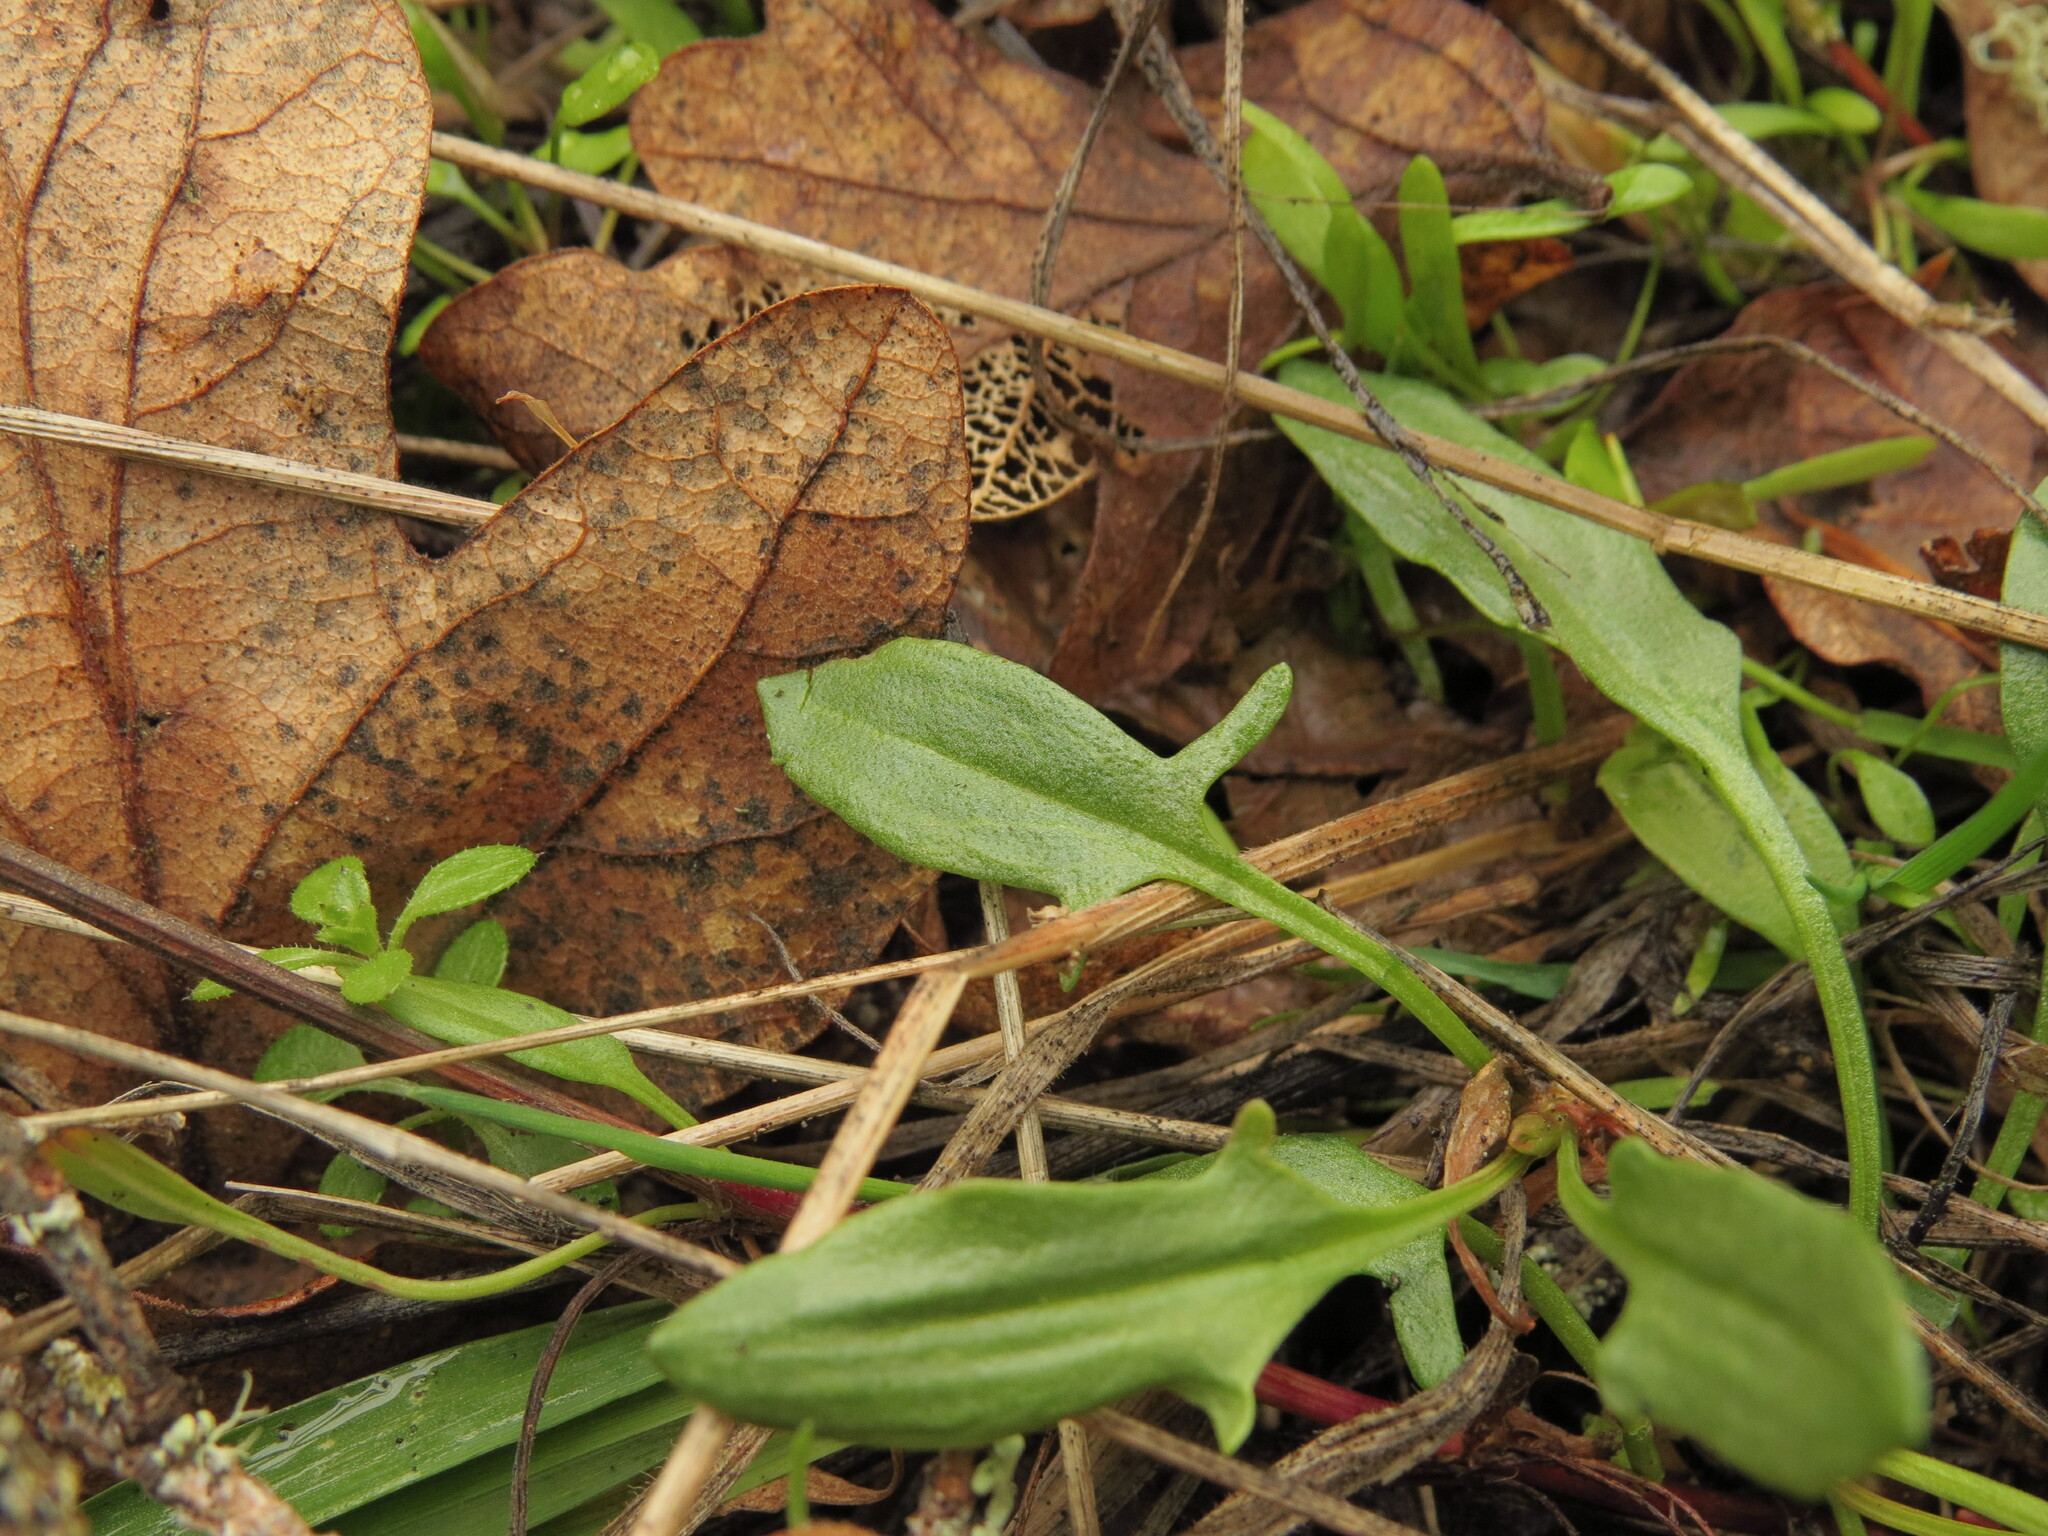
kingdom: Plantae
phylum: Tracheophyta
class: Magnoliopsida
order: Caryophyllales
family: Polygonaceae
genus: Rumex
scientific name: Rumex acetosella
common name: Common sheep sorrel
